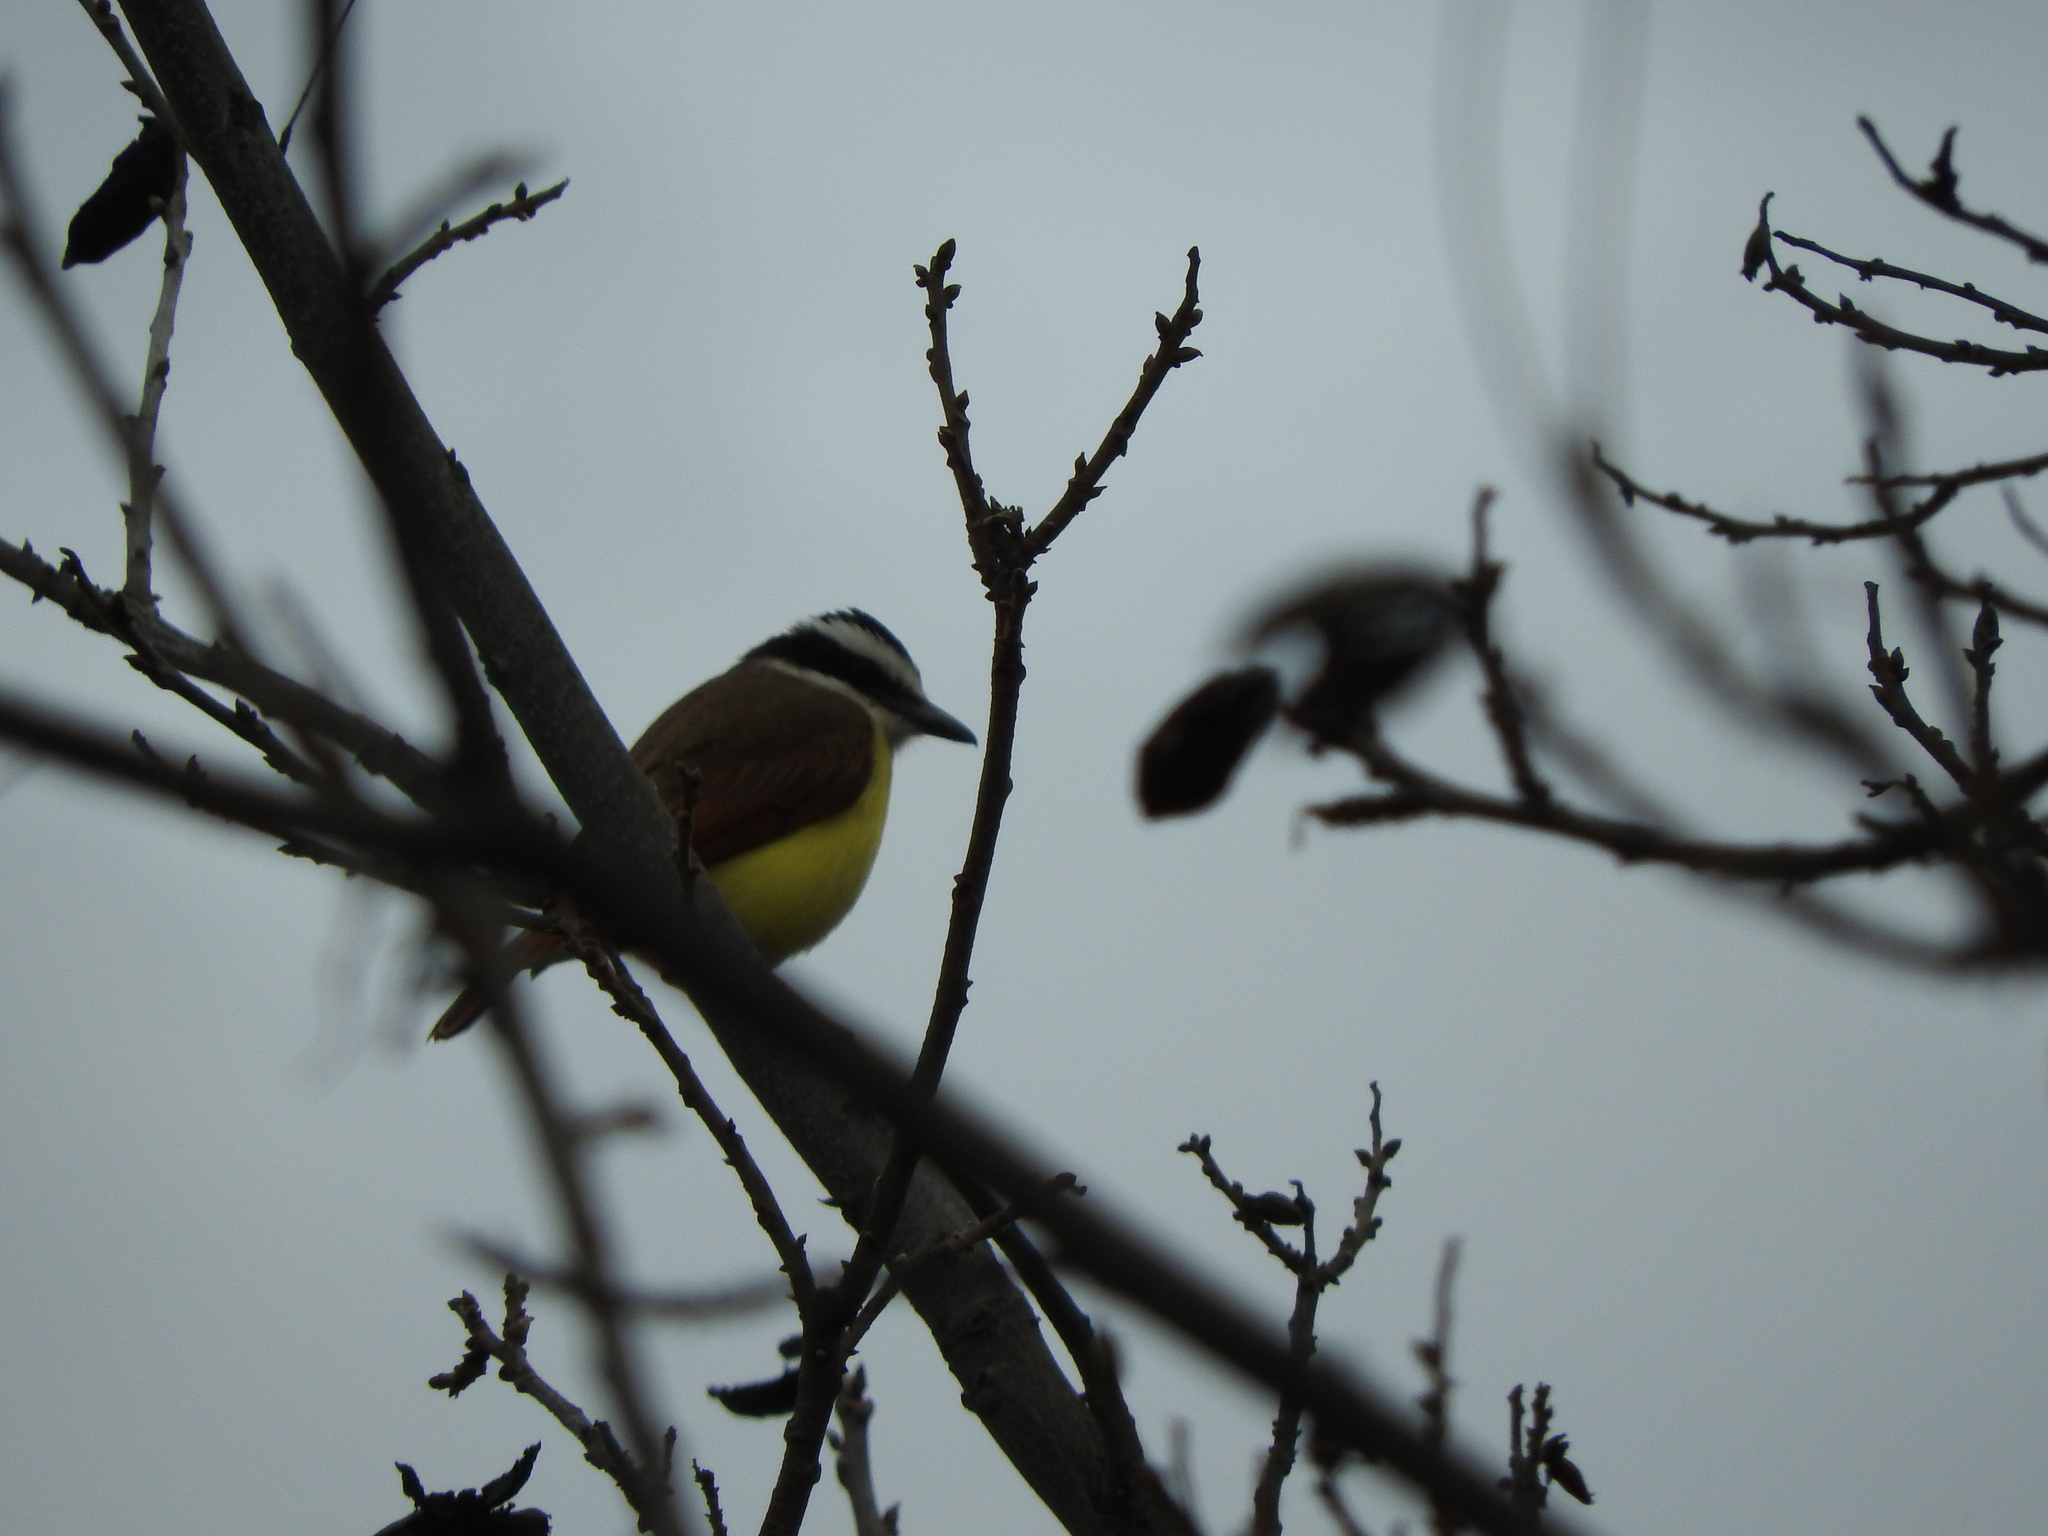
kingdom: Animalia
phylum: Chordata
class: Aves
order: Passeriformes
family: Tyrannidae
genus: Pitangus
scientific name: Pitangus sulphuratus
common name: Great kiskadee
